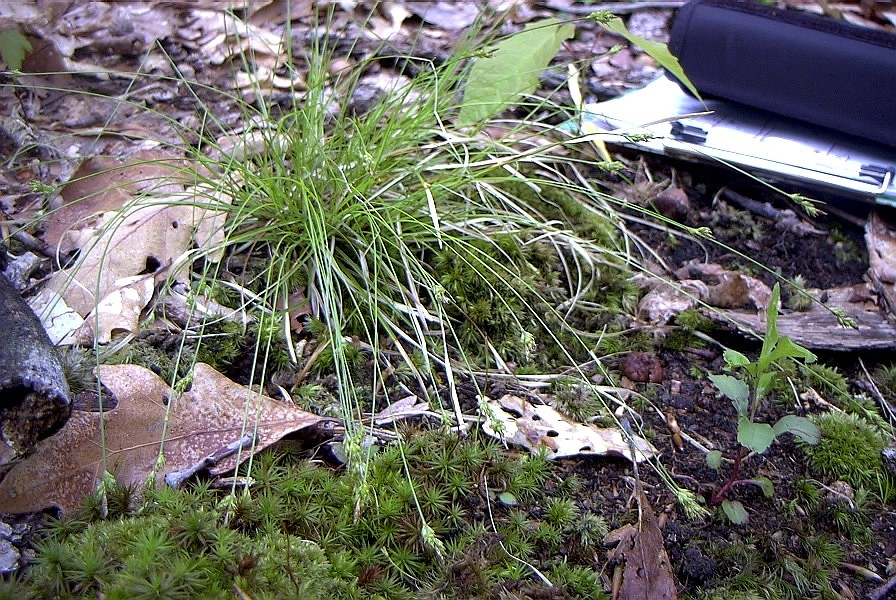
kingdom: Plantae
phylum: Tracheophyta
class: Liliopsida
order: Poales
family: Cyperaceae
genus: Carex
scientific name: Carex albicans
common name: Bellow-beaked sedge
